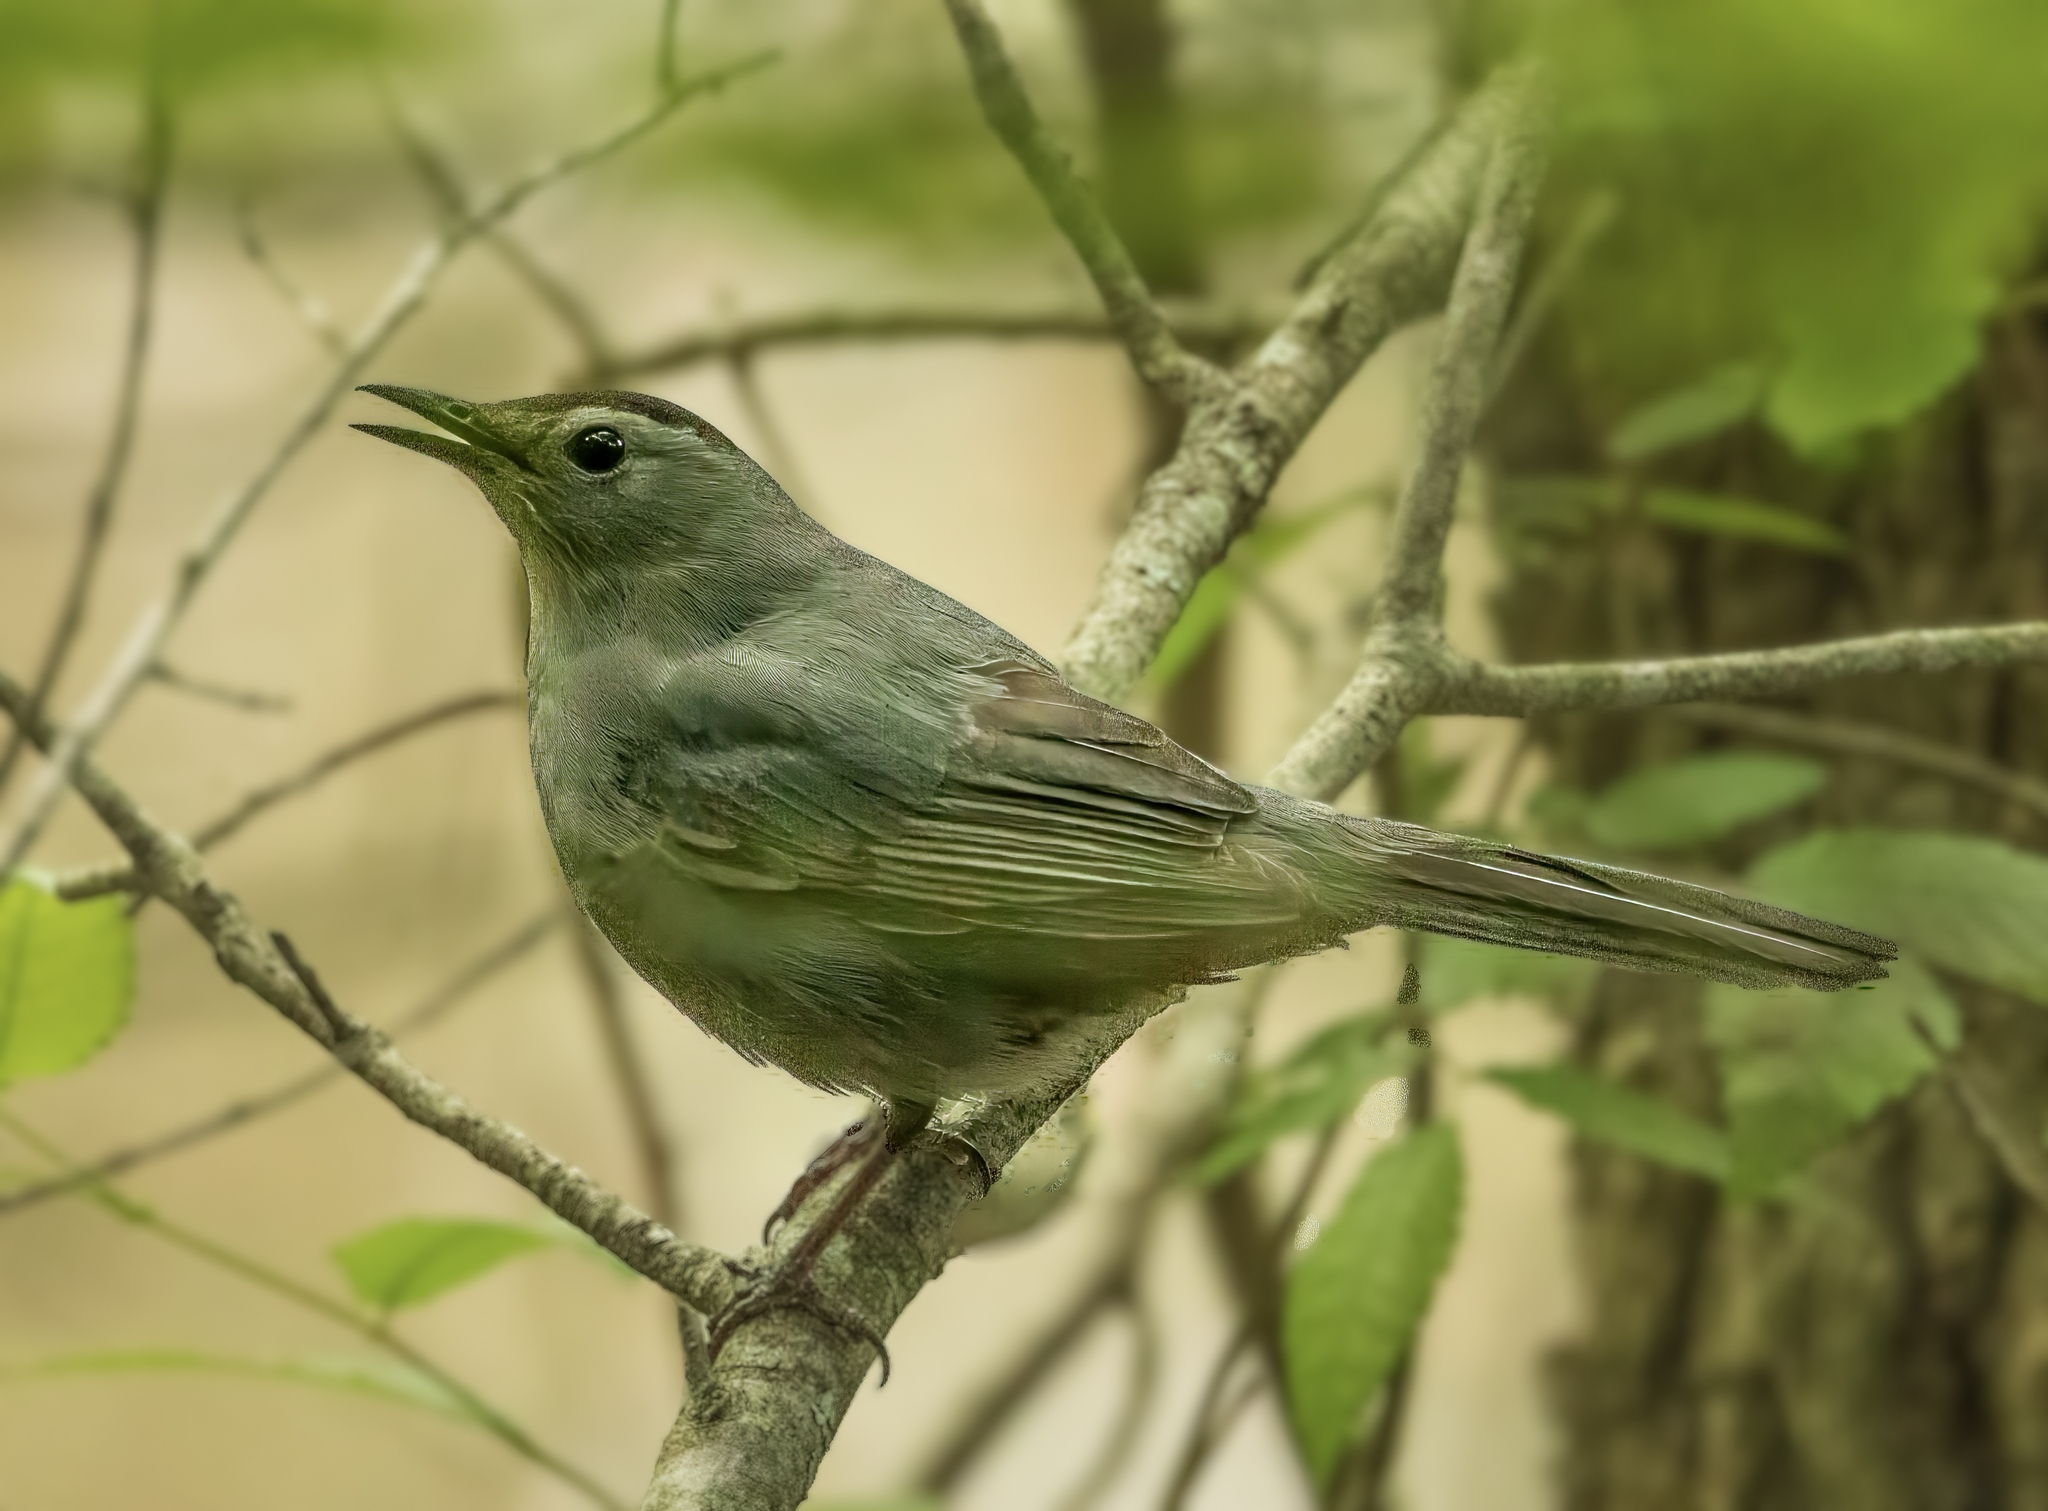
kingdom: Animalia
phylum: Chordata
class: Aves
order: Passeriformes
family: Mimidae
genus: Dumetella
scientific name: Dumetella carolinensis
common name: Gray catbird
